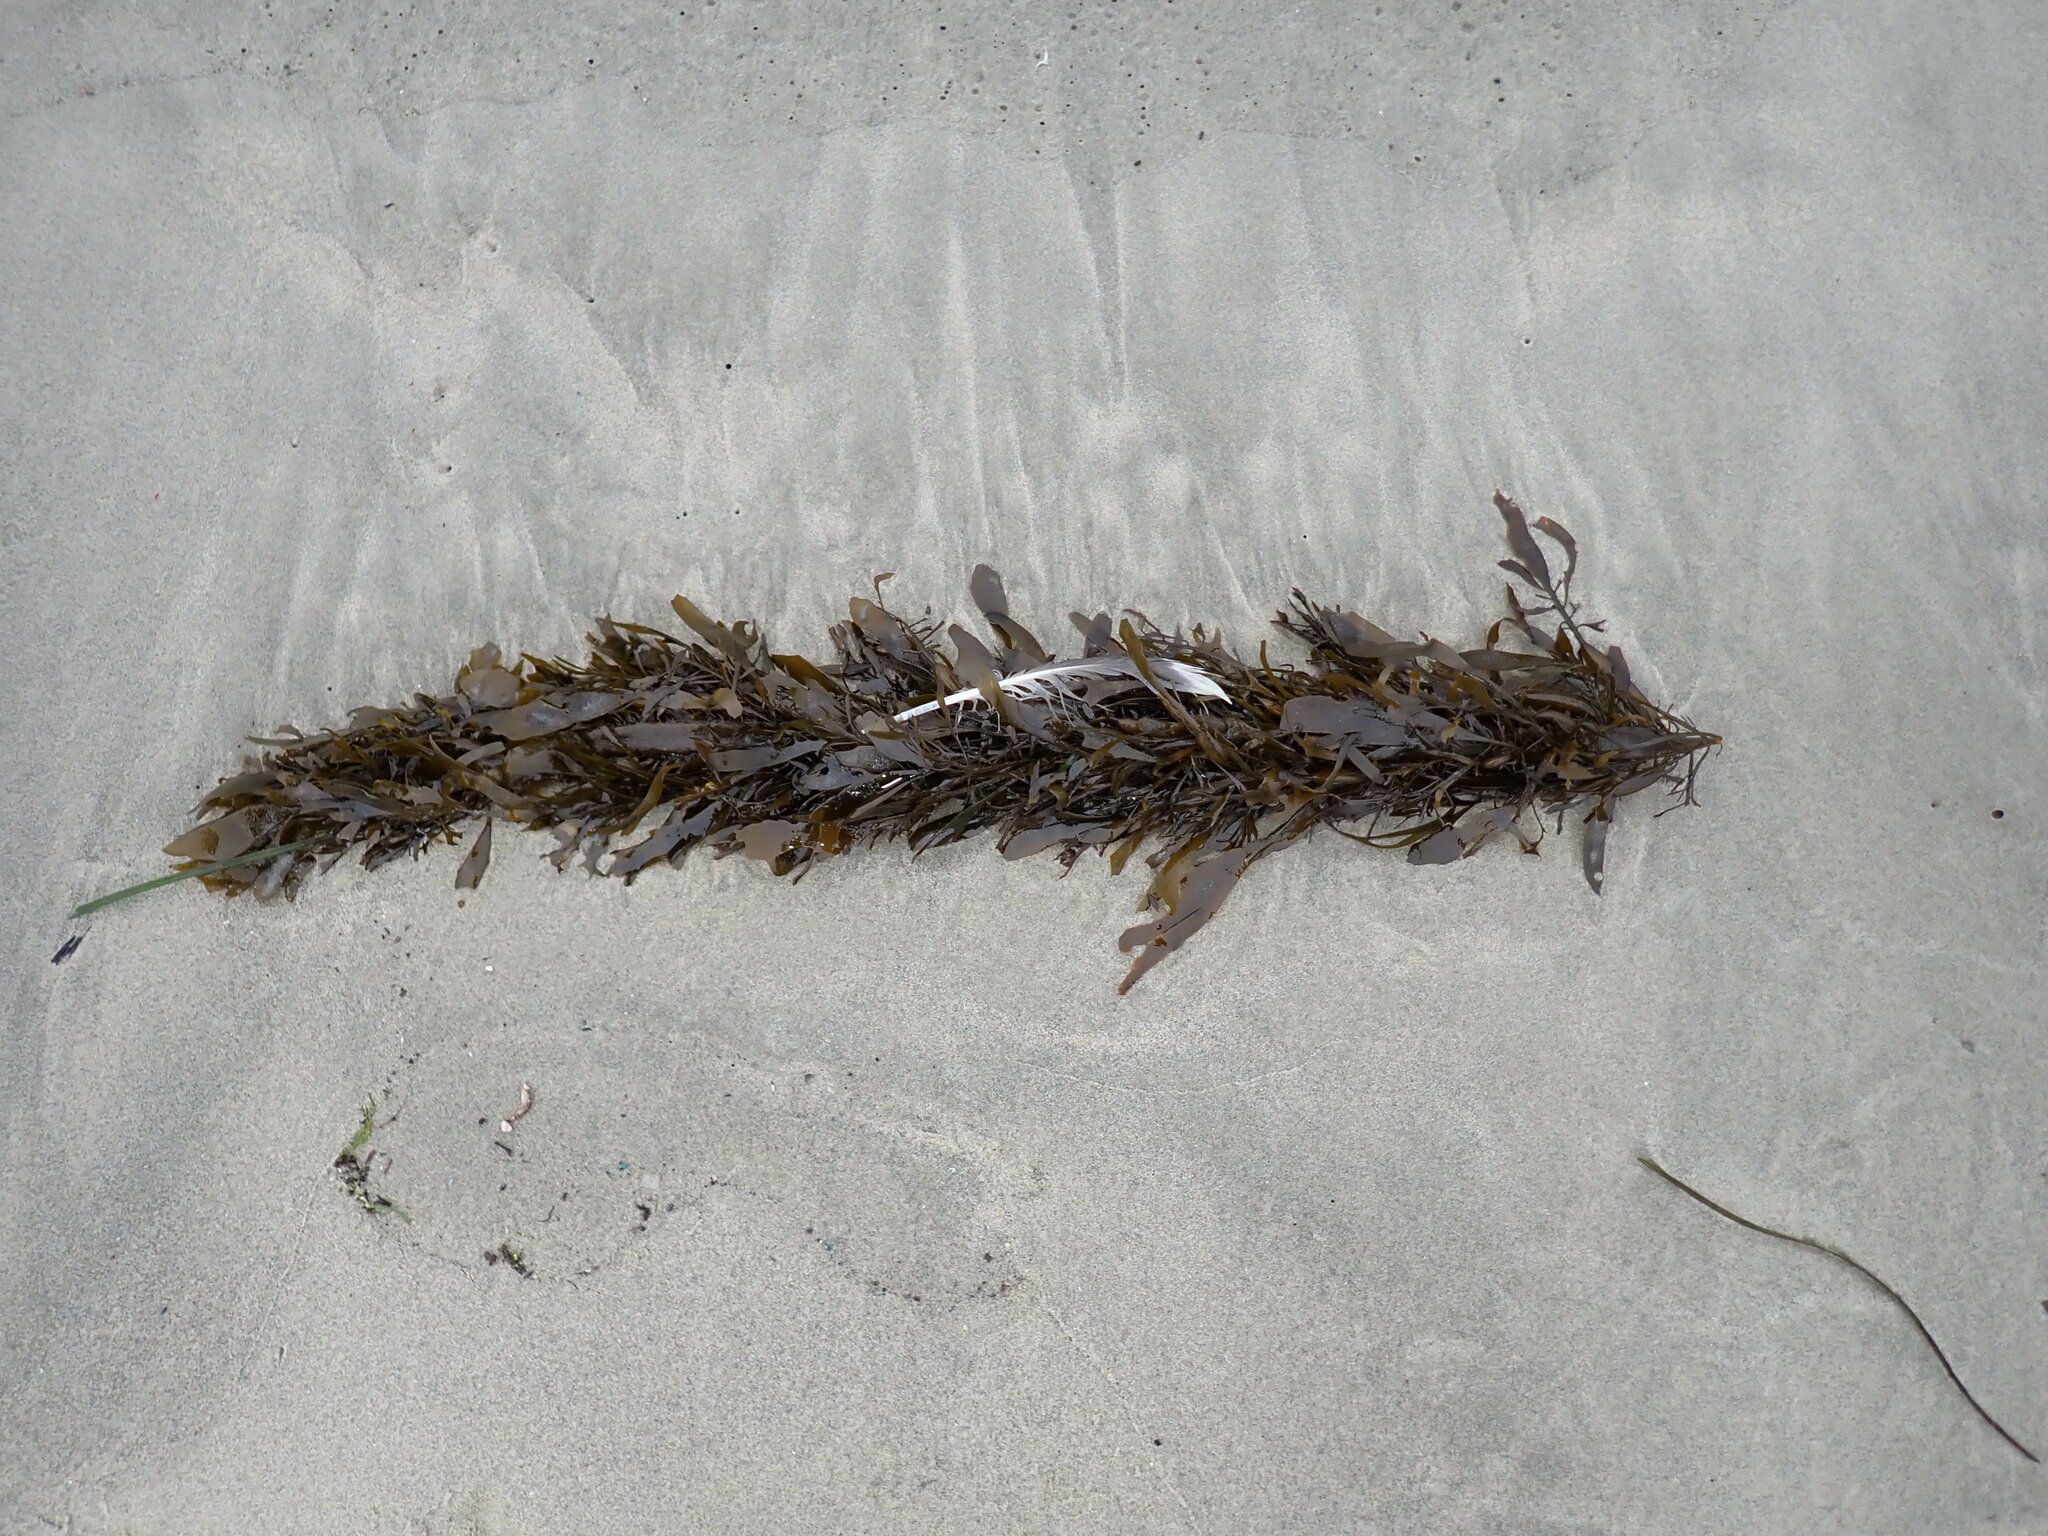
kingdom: Chromista
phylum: Ochrophyta
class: Phaeophyceae
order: Laminariales
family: Lessoniaceae
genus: Egregia
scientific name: Egregia menziesii
